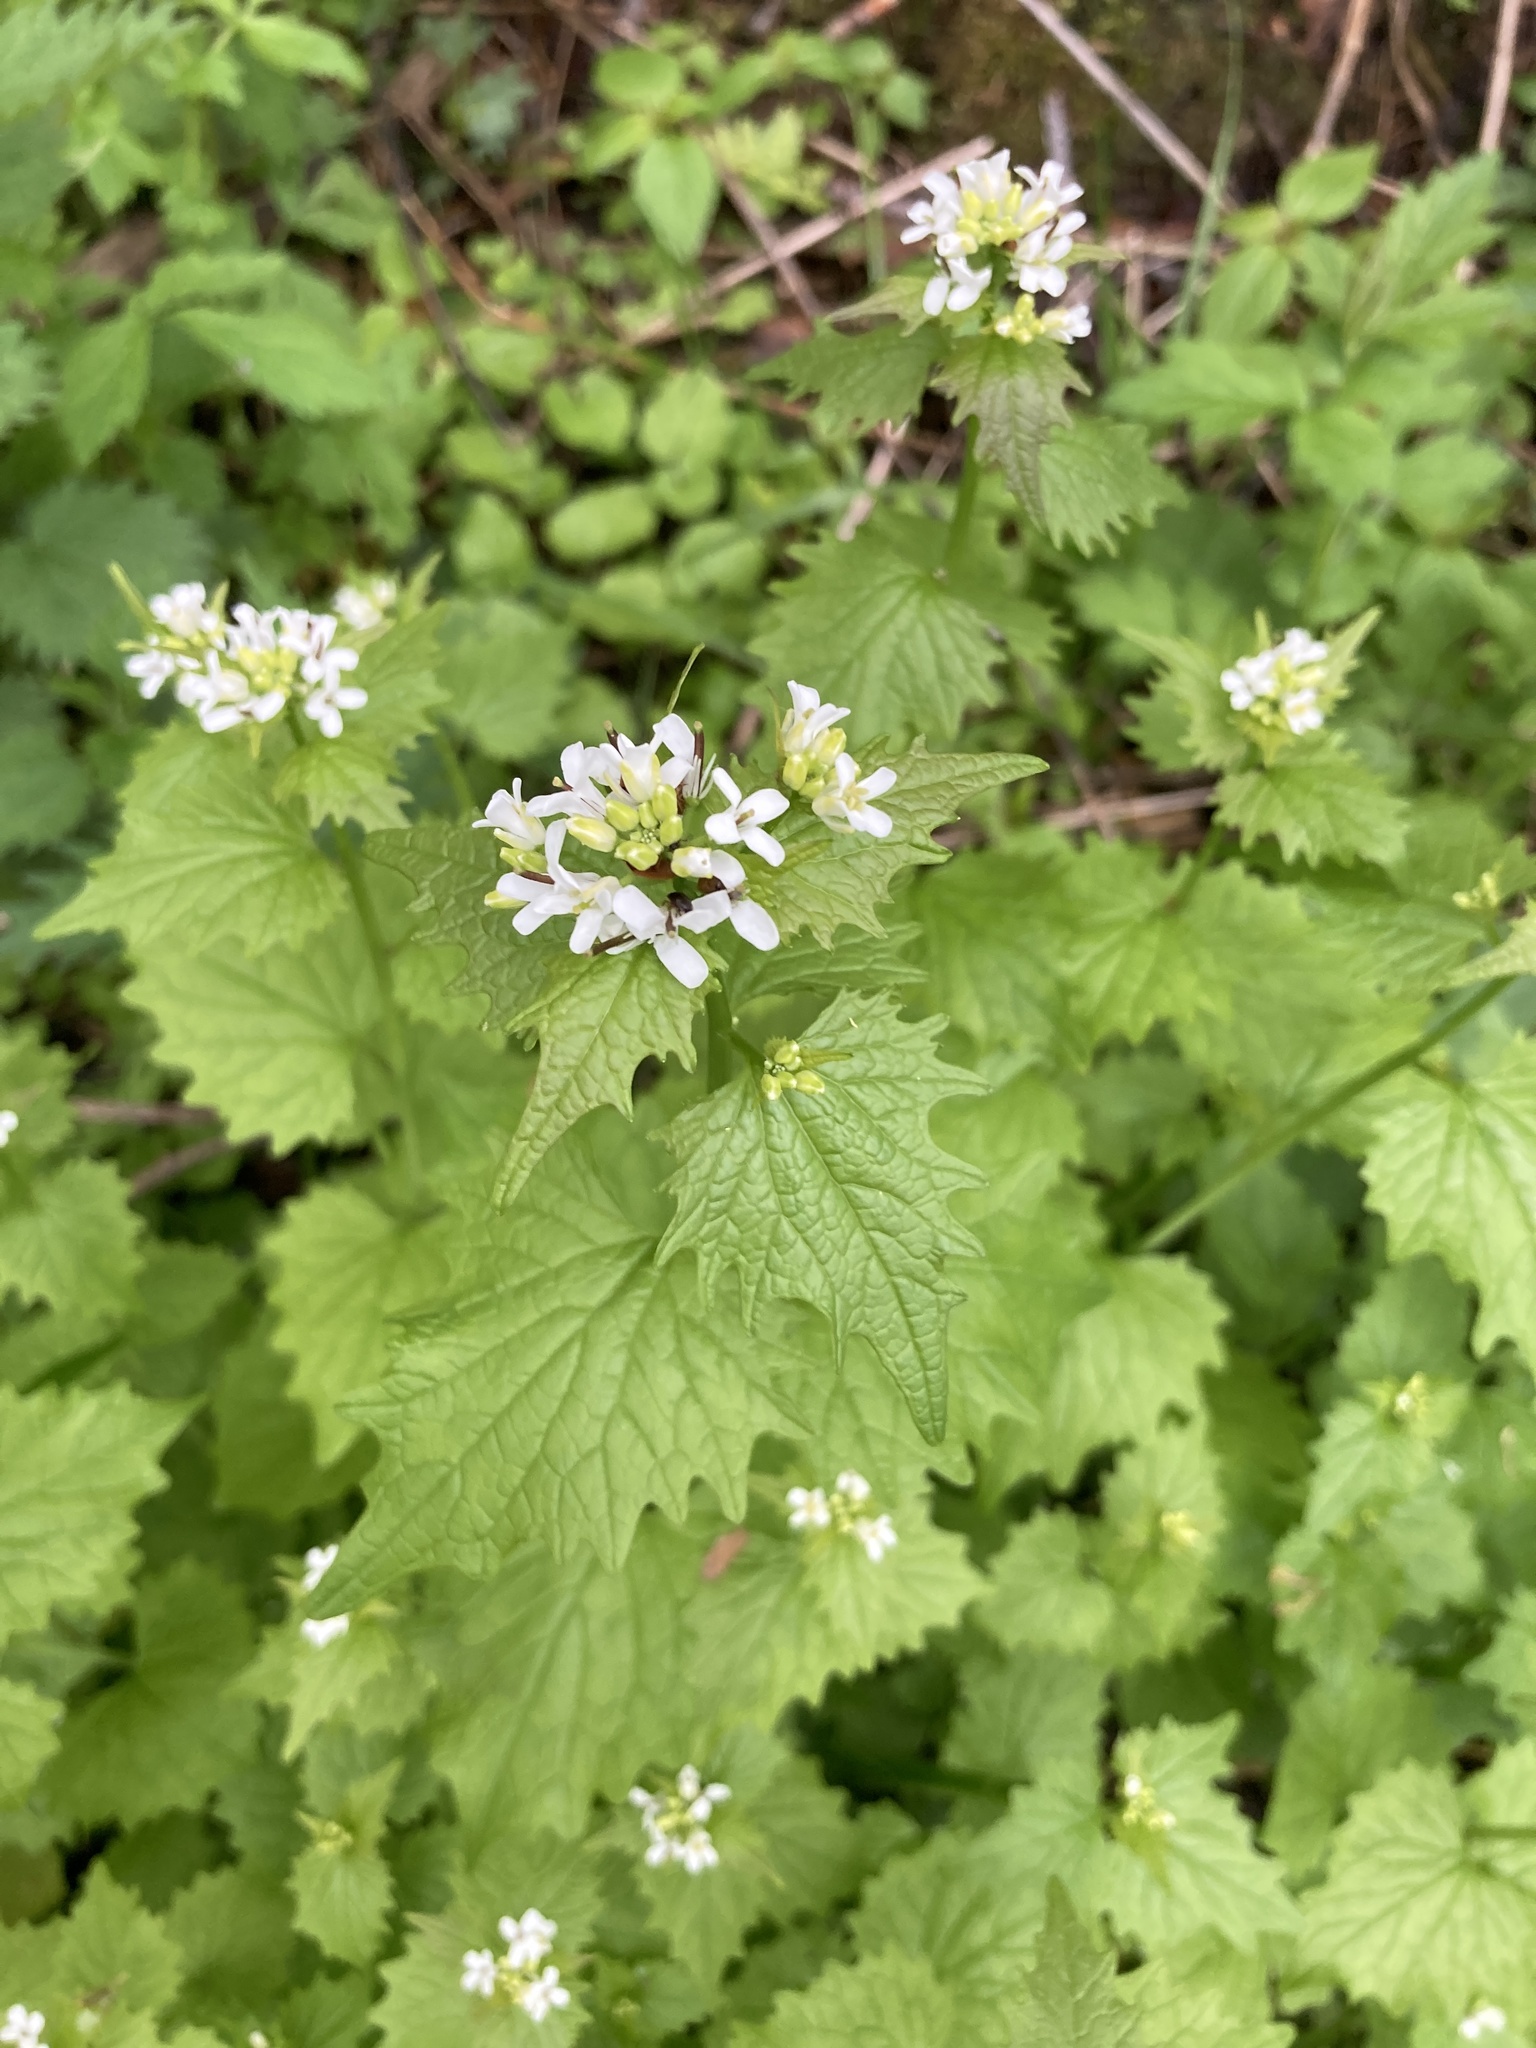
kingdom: Plantae
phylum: Tracheophyta
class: Magnoliopsida
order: Brassicales
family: Brassicaceae
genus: Alliaria
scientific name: Alliaria petiolata
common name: Garlic mustard
